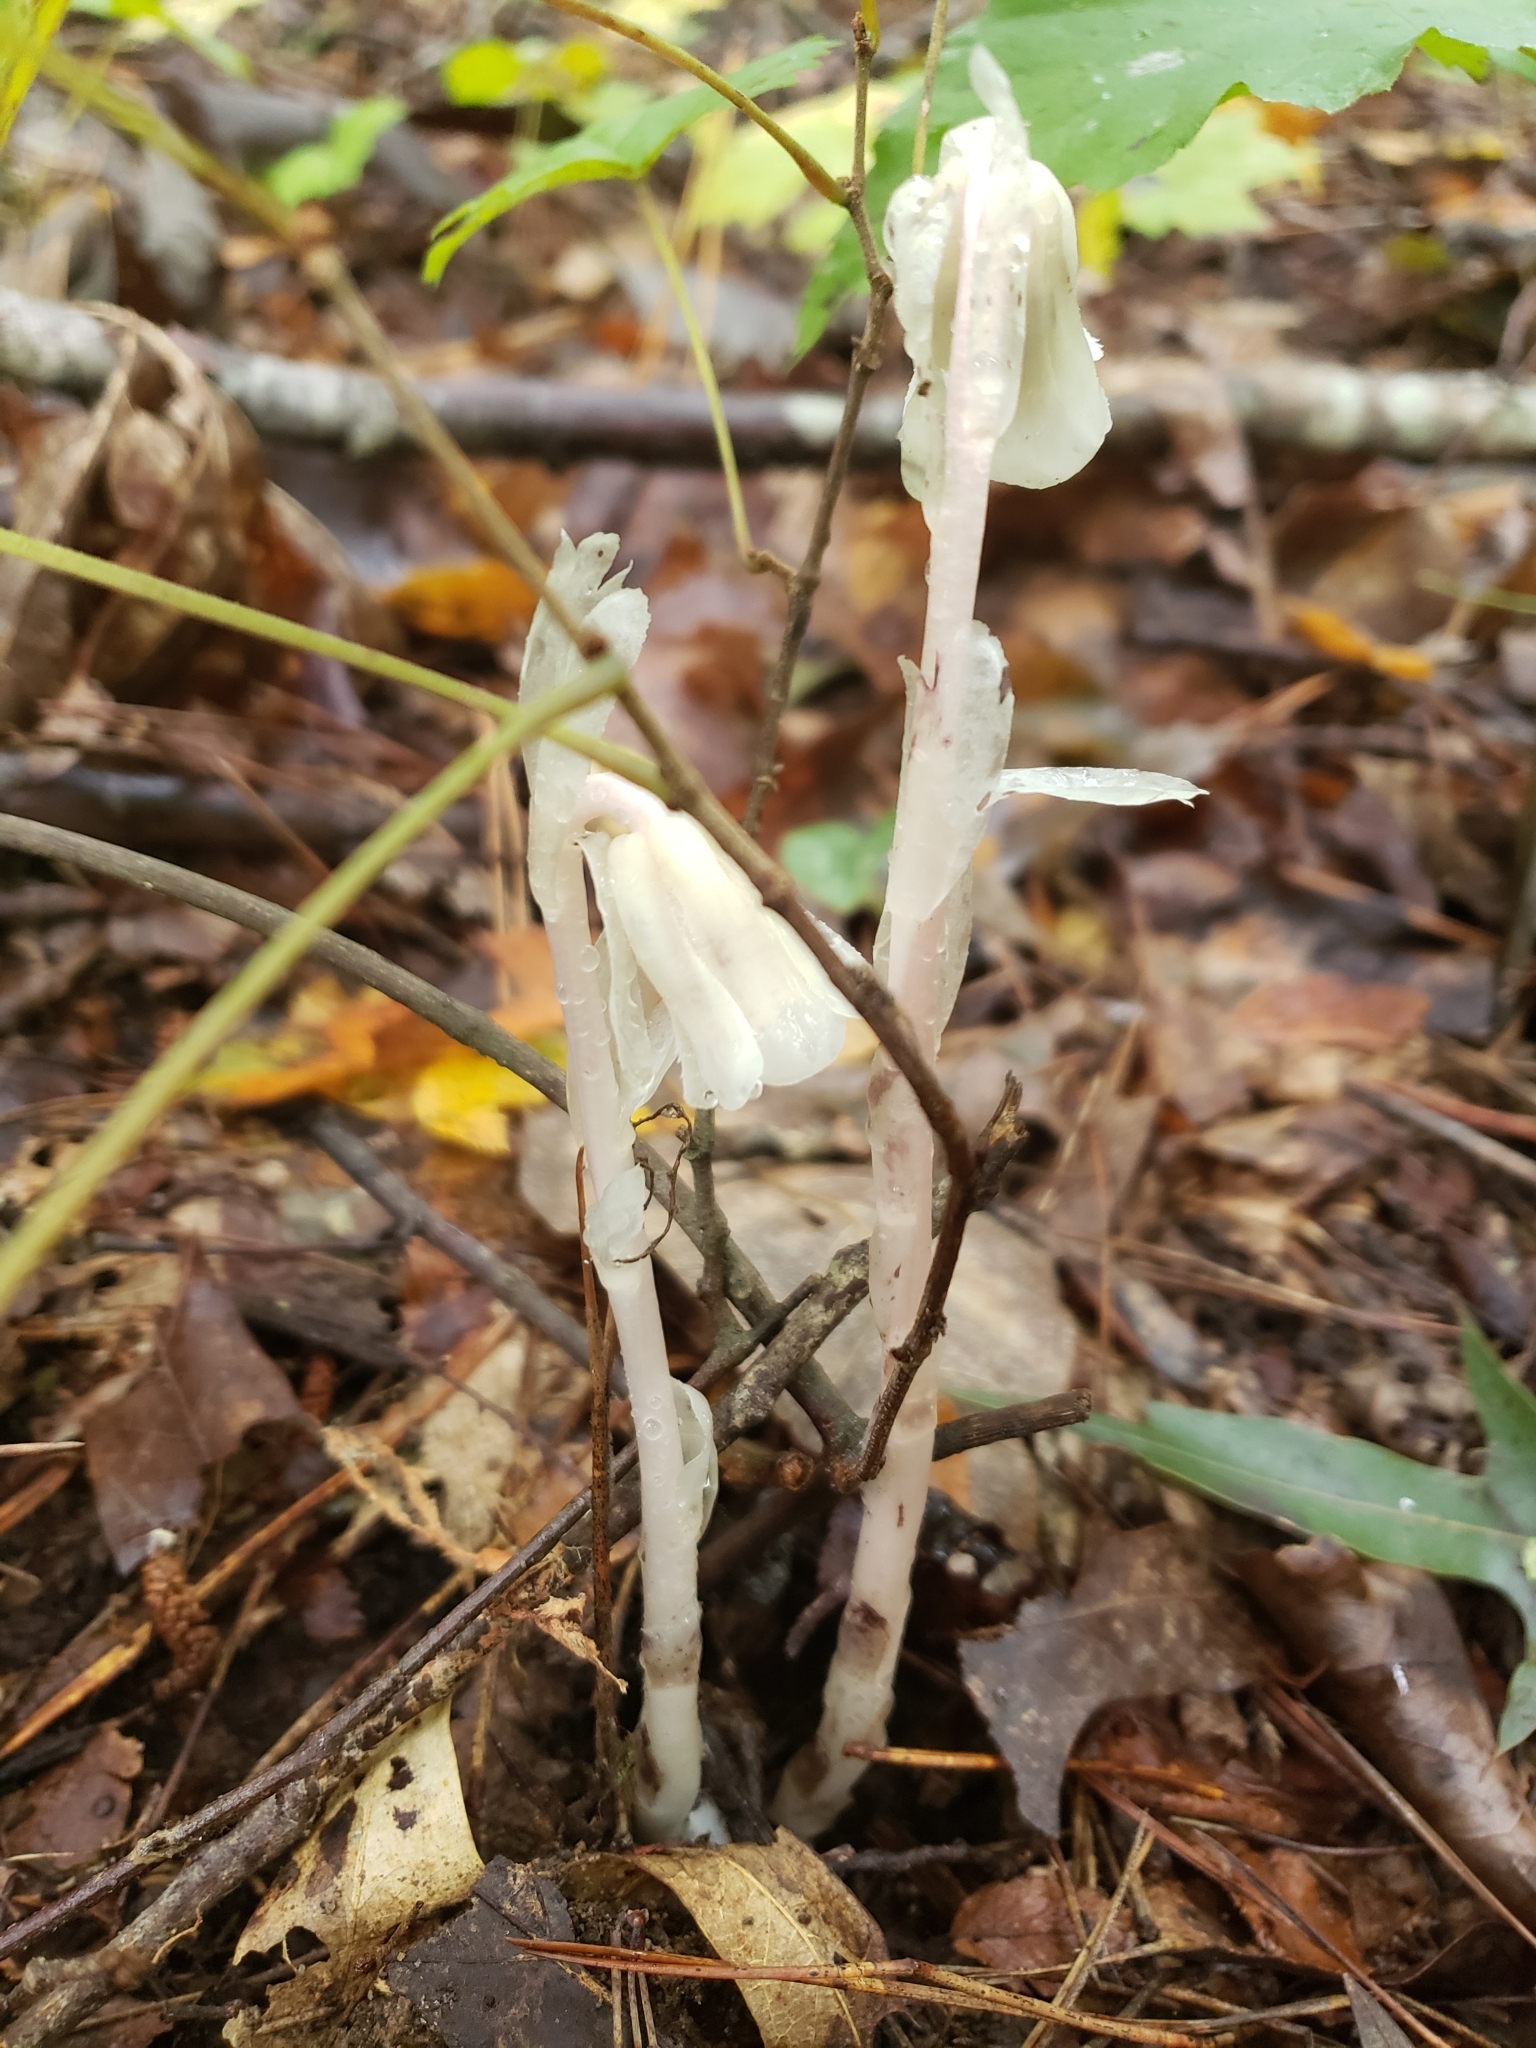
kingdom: Plantae
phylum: Tracheophyta
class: Magnoliopsida
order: Ericales
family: Ericaceae
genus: Monotropa
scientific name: Monotropa uniflora
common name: Convulsion root
